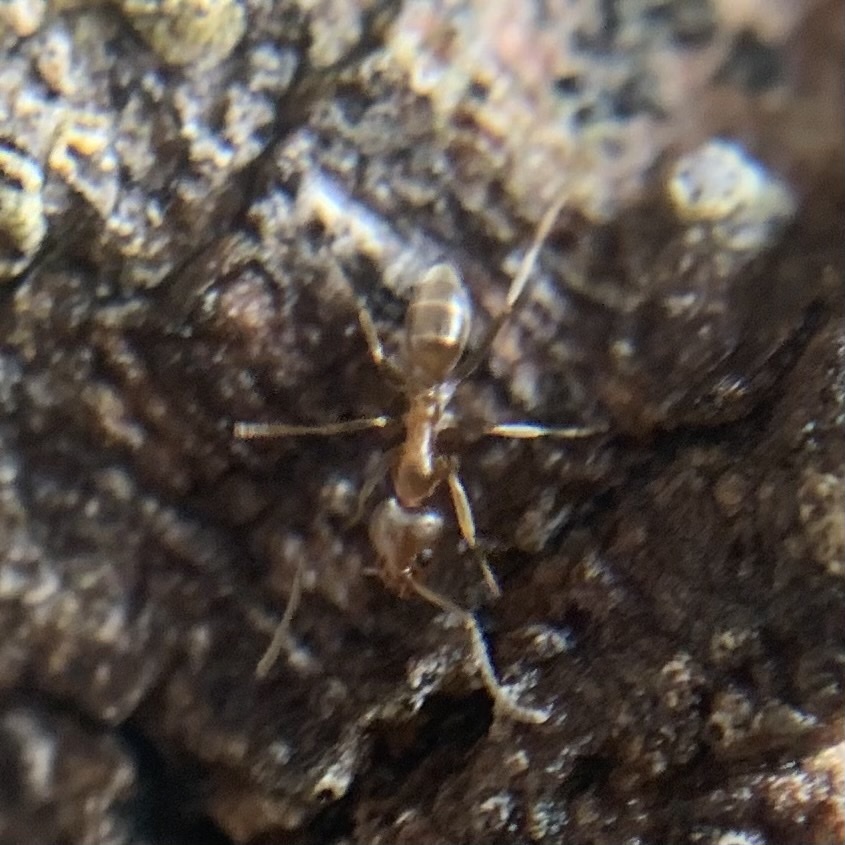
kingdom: Animalia
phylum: Arthropoda
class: Insecta
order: Hymenoptera
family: Formicidae
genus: Linepithema
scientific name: Linepithema humile
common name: Argentine ant
